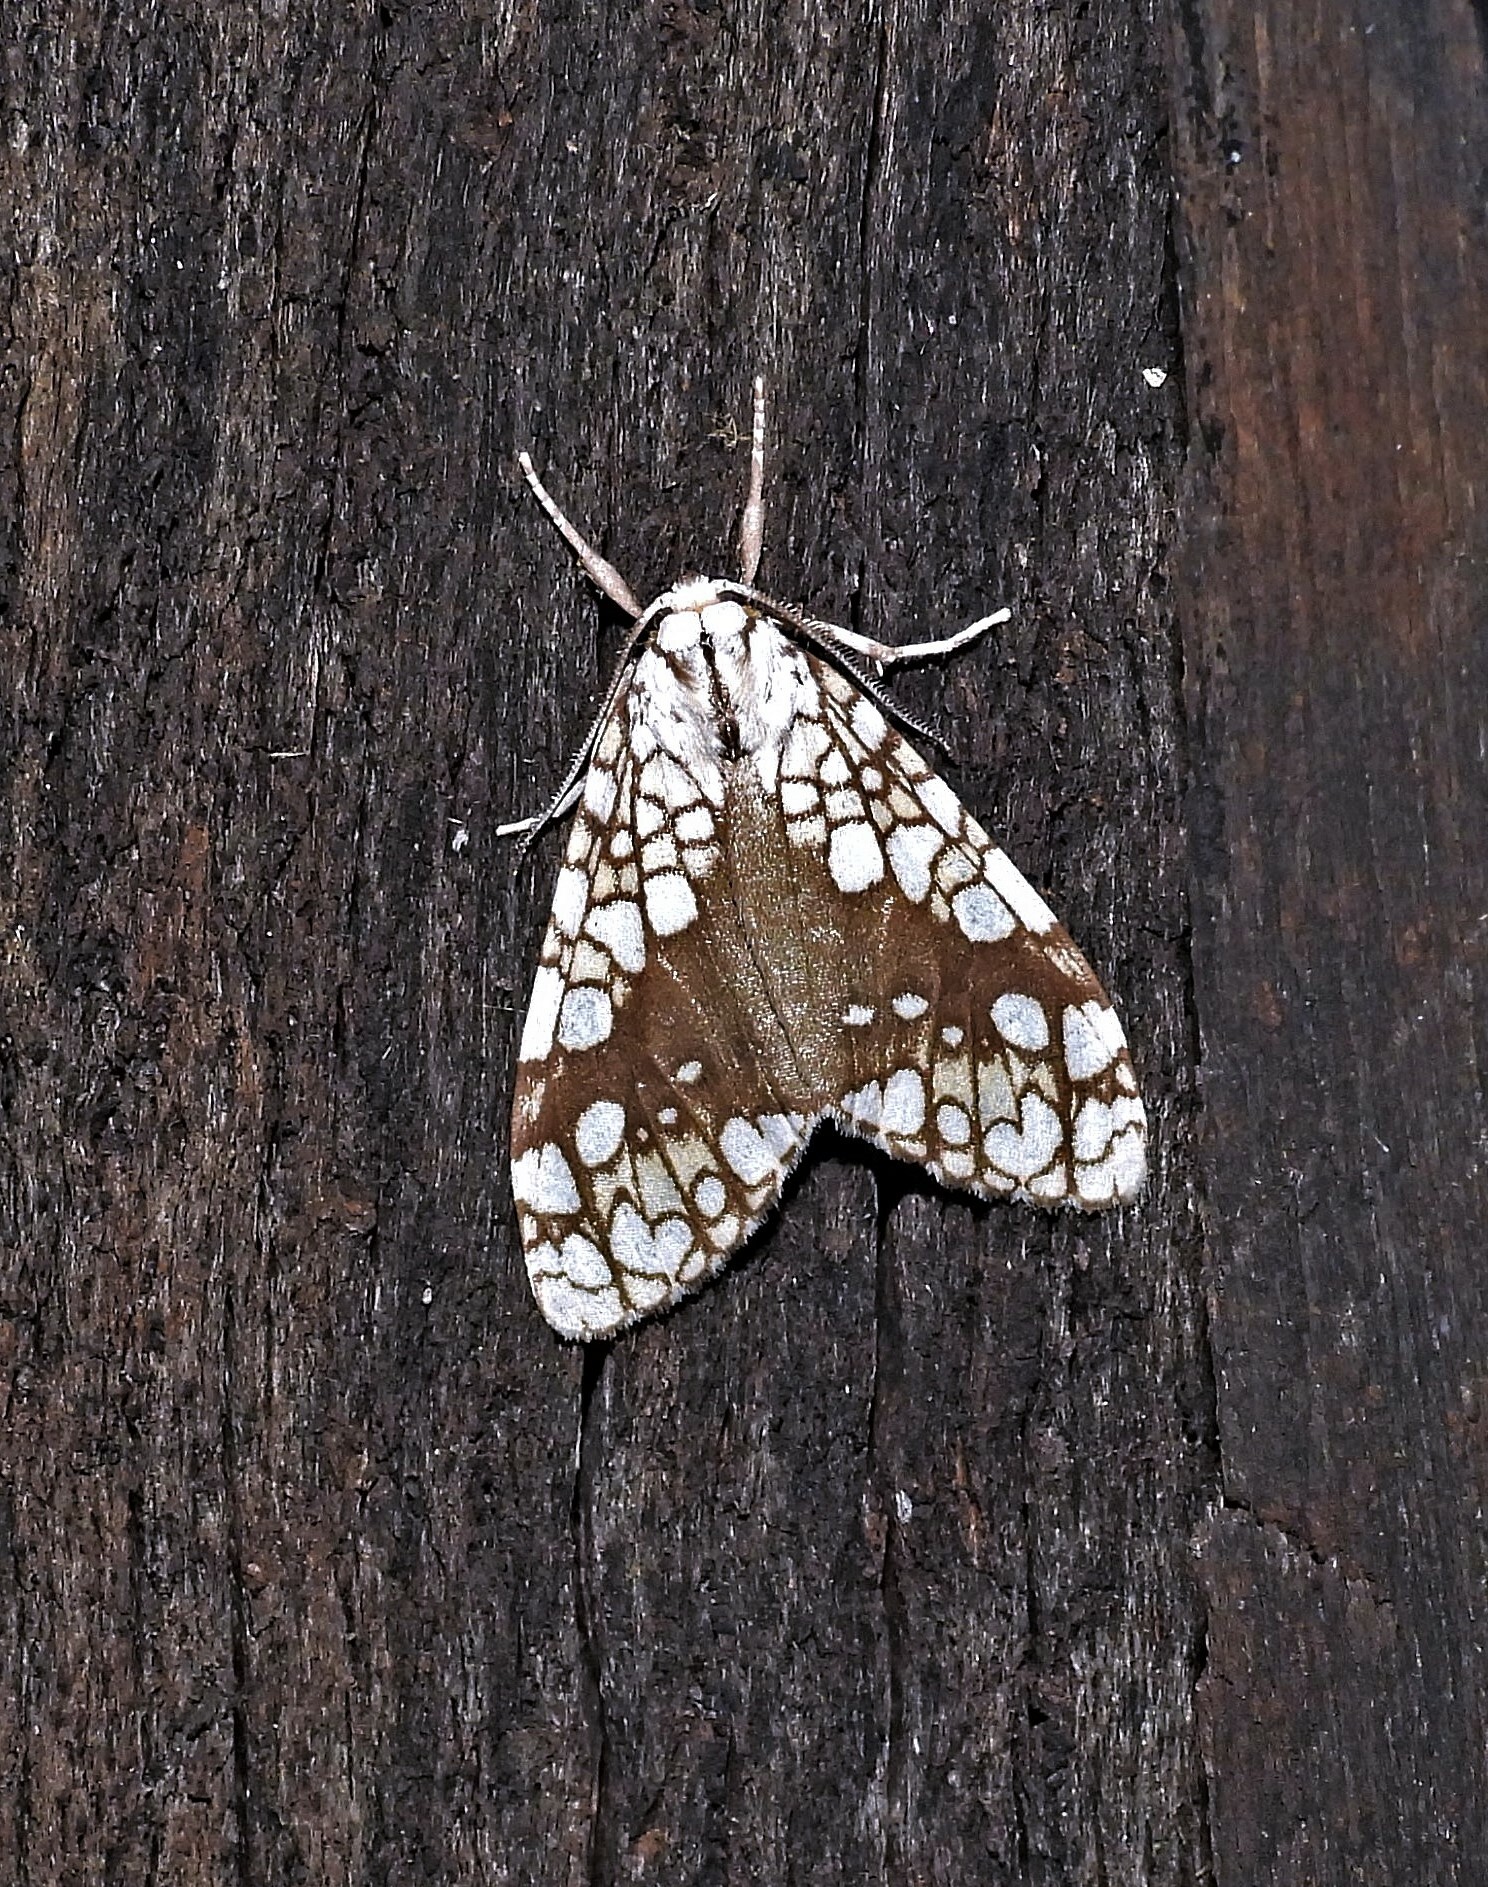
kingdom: Animalia
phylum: Arthropoda
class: Insecta
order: Lepidoptera
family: Erebidae
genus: Tessella
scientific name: Tessella jorgenseni
